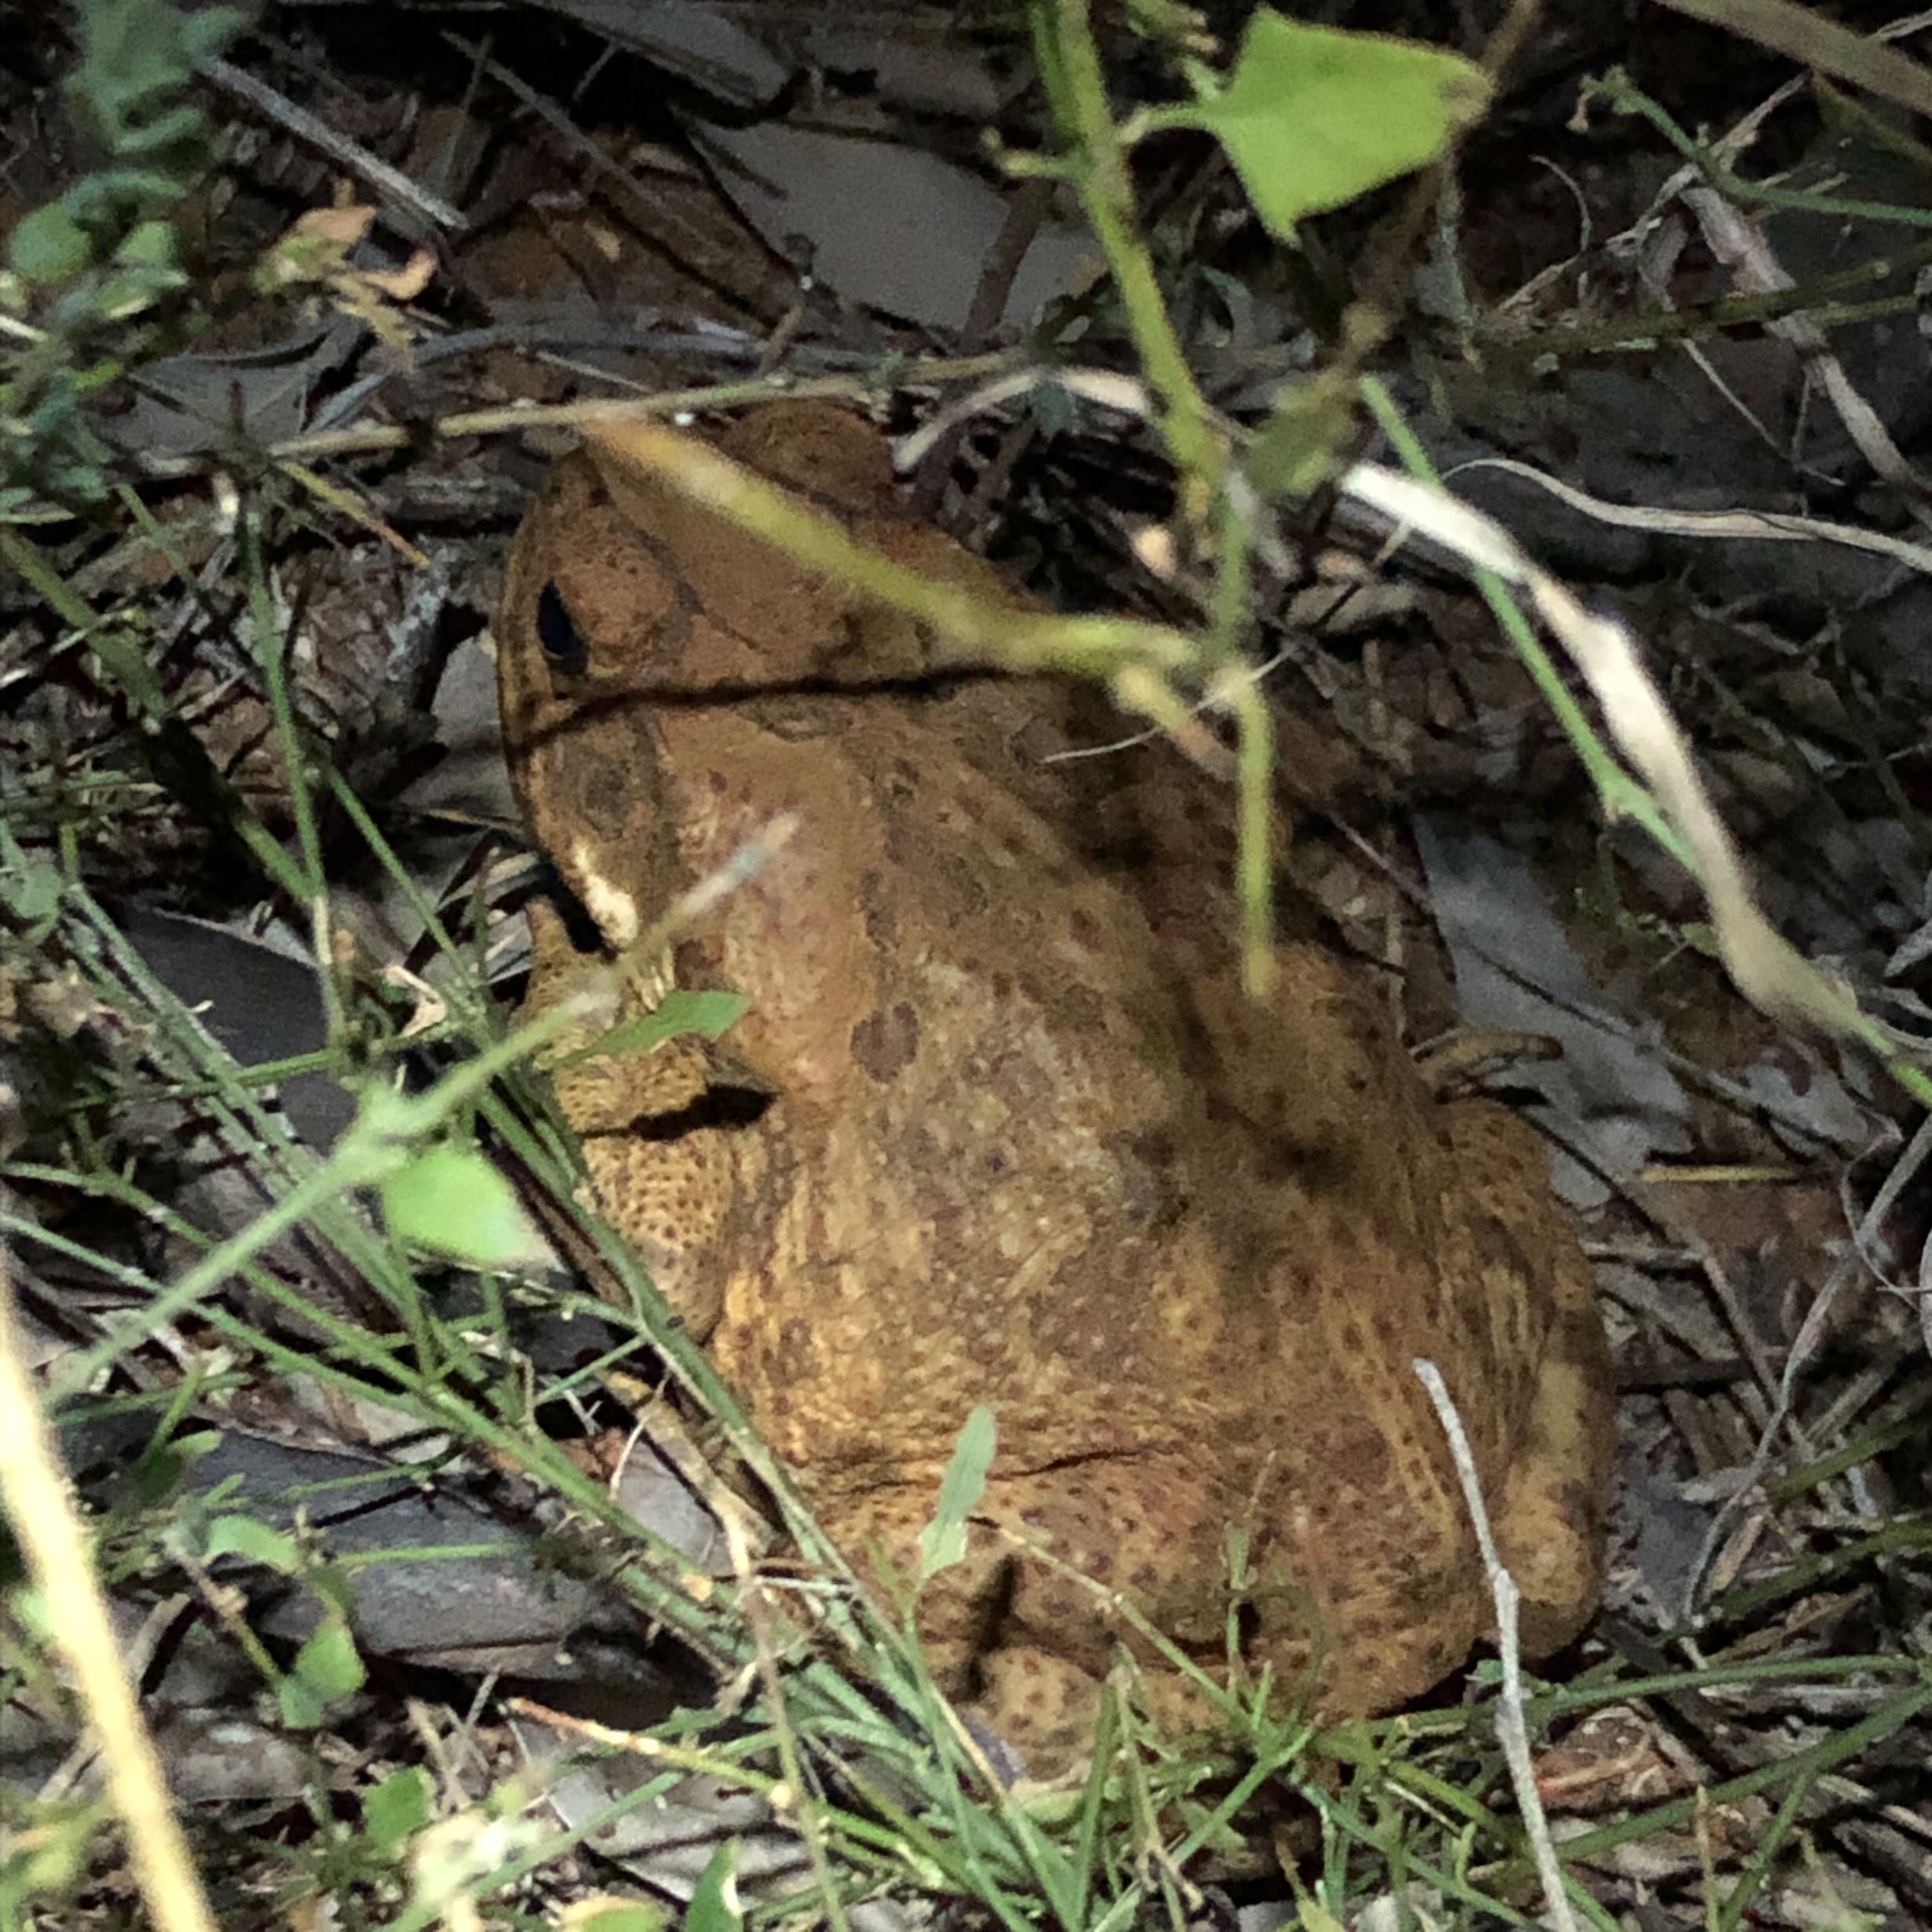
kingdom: Animalia
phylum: Chordata
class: Amphibia
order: Anura
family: Bufonidae
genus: Rhinella
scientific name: Rhinella marina
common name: Cane toad
